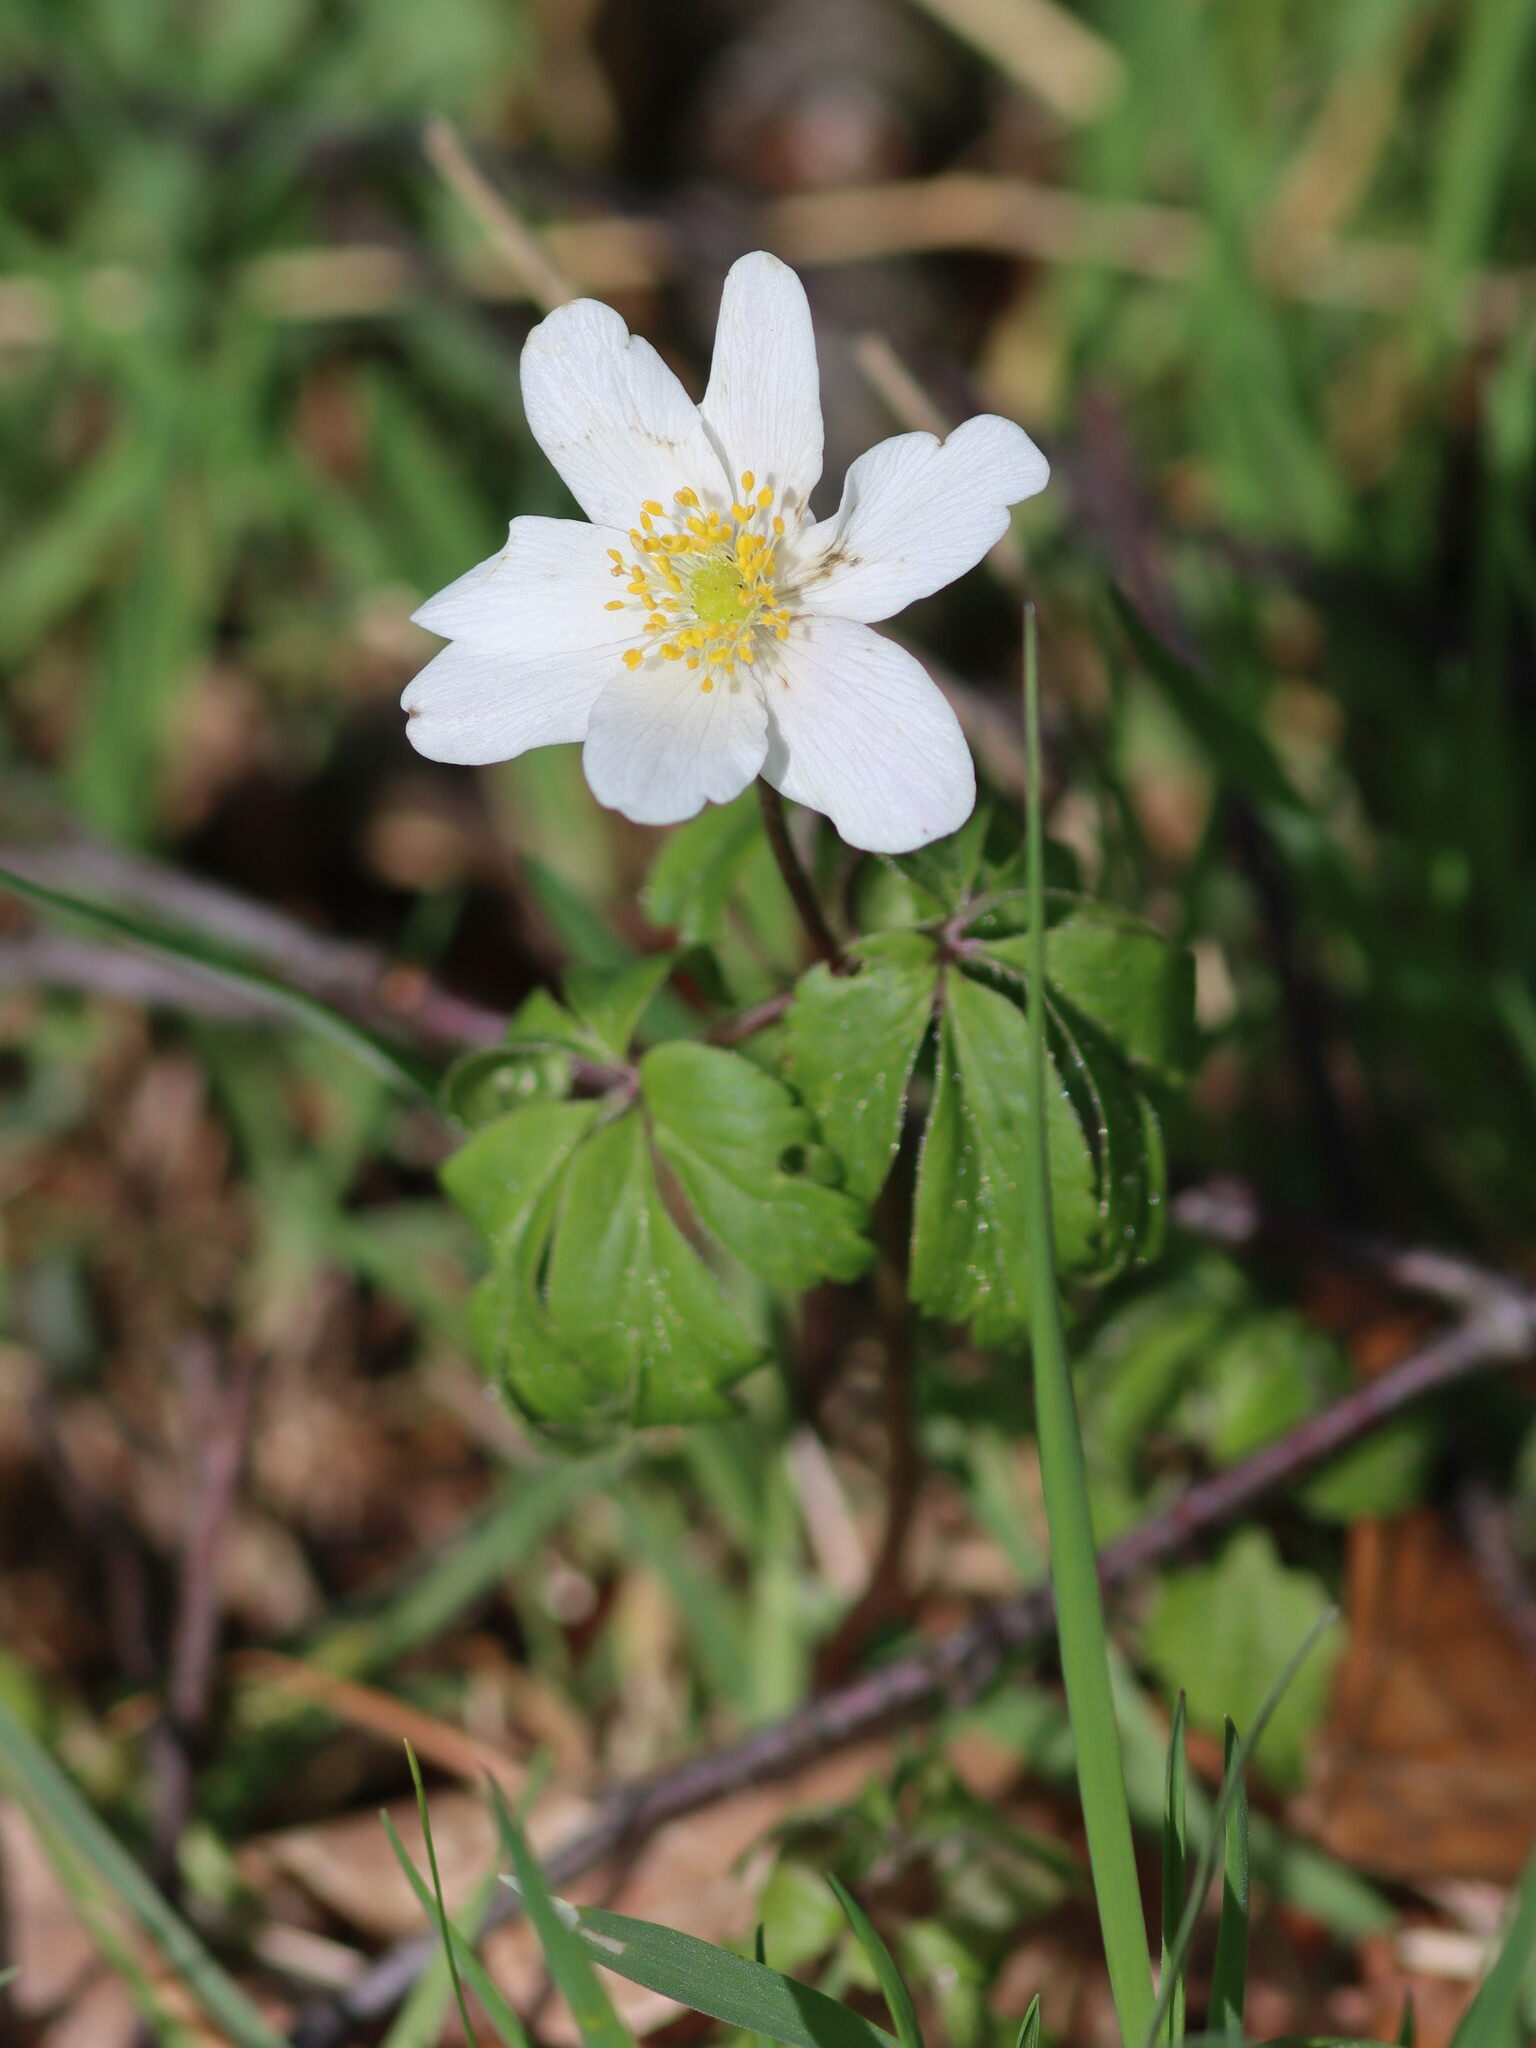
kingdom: Plantae
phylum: Tracheophyta
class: Magnoliopsida
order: Ranunculales
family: Ranunculaceae
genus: Anemone
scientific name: Anemone nemorosa
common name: Wood anemone
